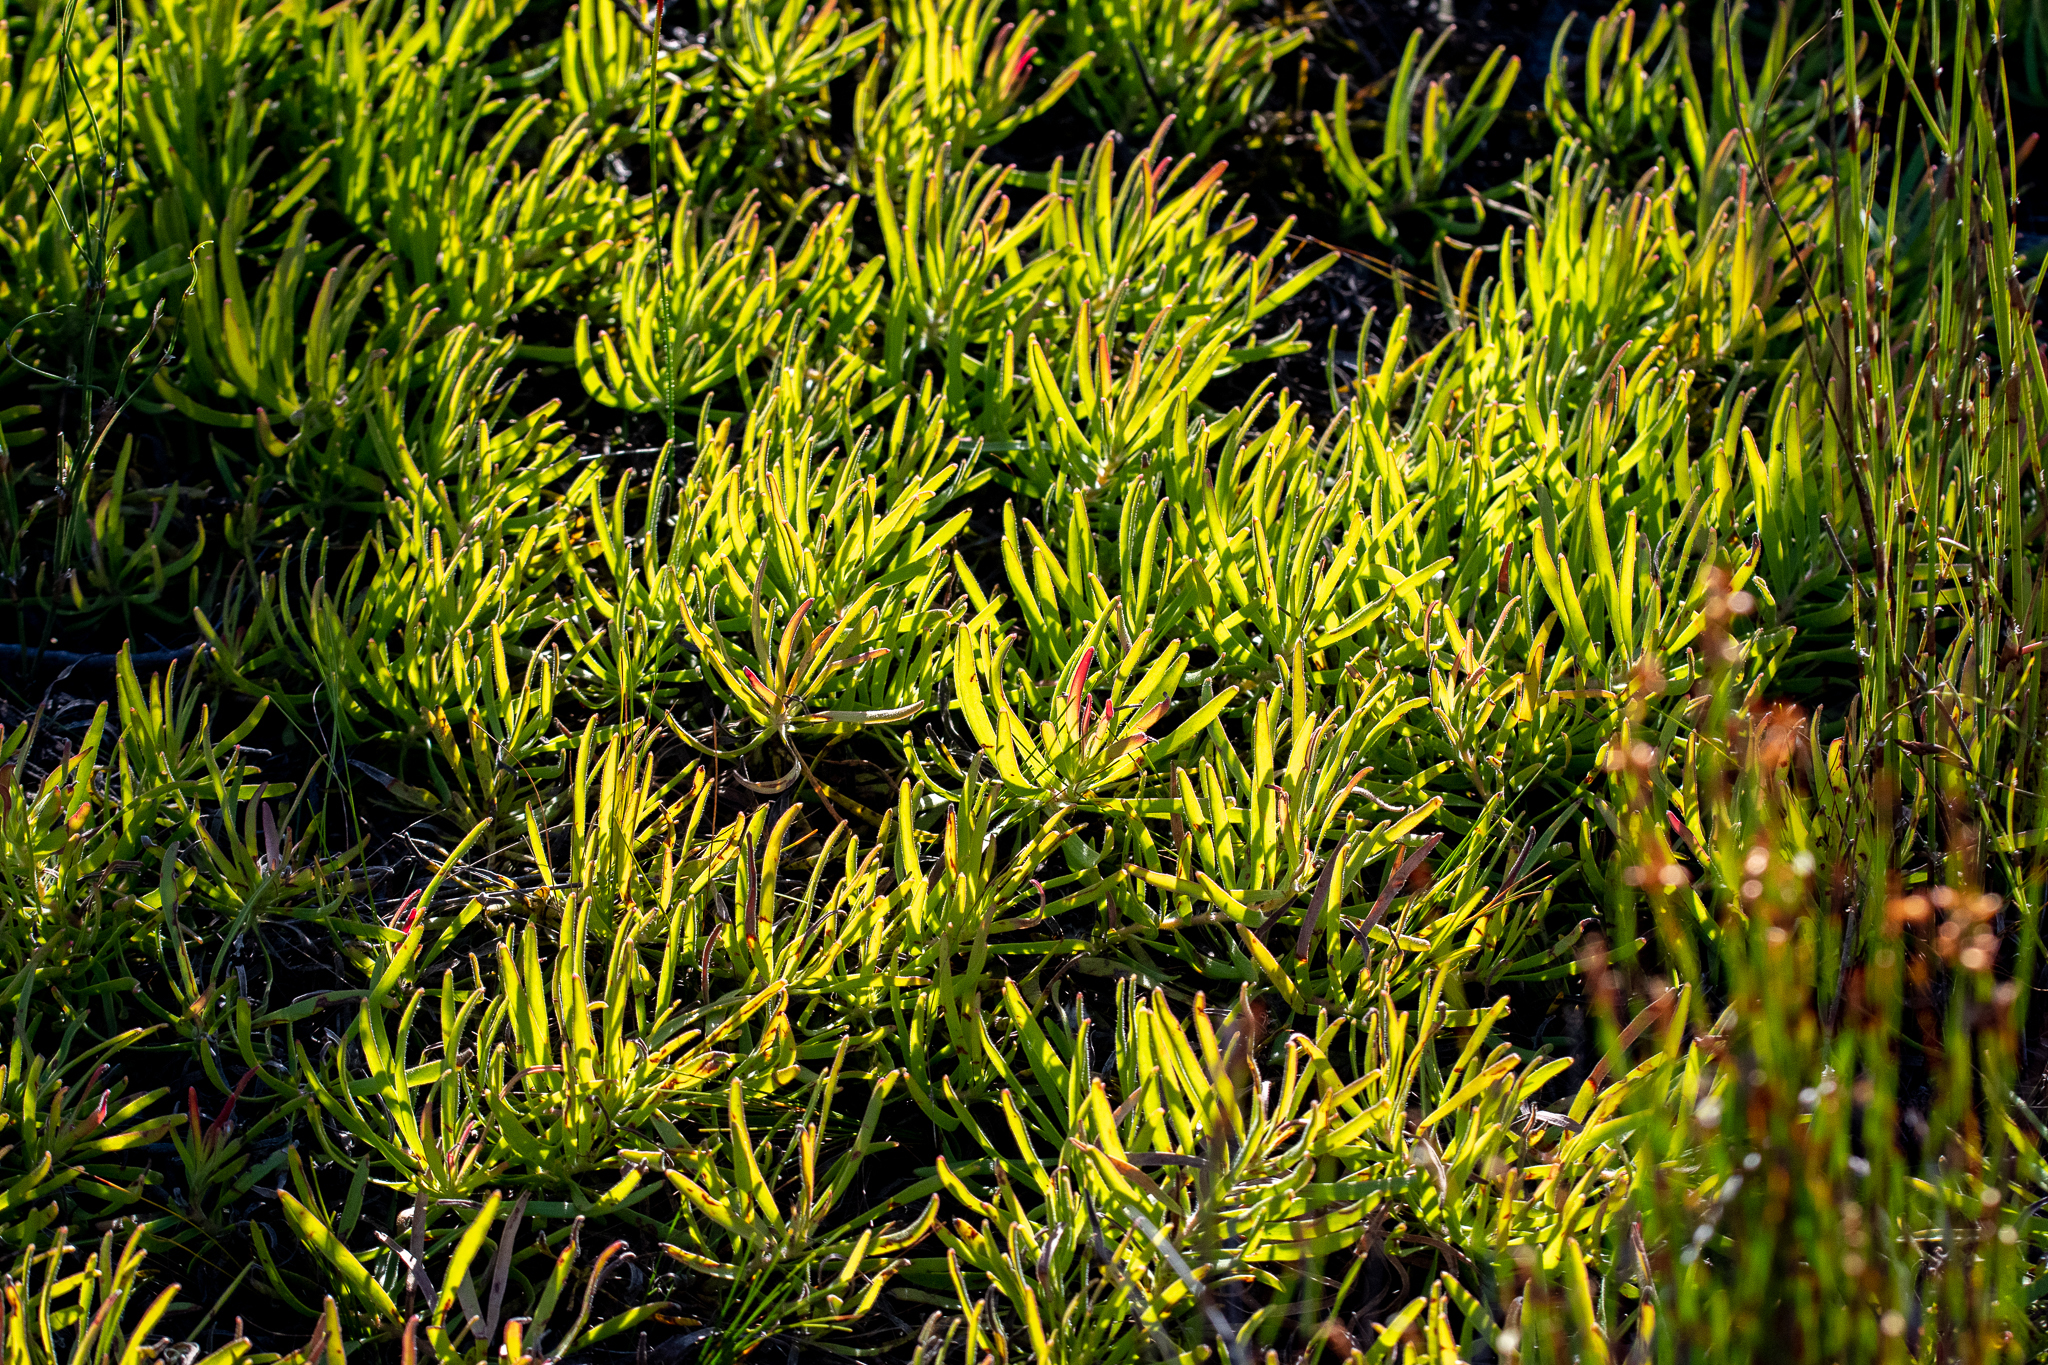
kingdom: Plantae
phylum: Tracheophyta
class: Magnoliopsida
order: Proteales
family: Proteaceae
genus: Leucadendron
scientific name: Leucadendron salignum
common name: Common sunshine conebush
